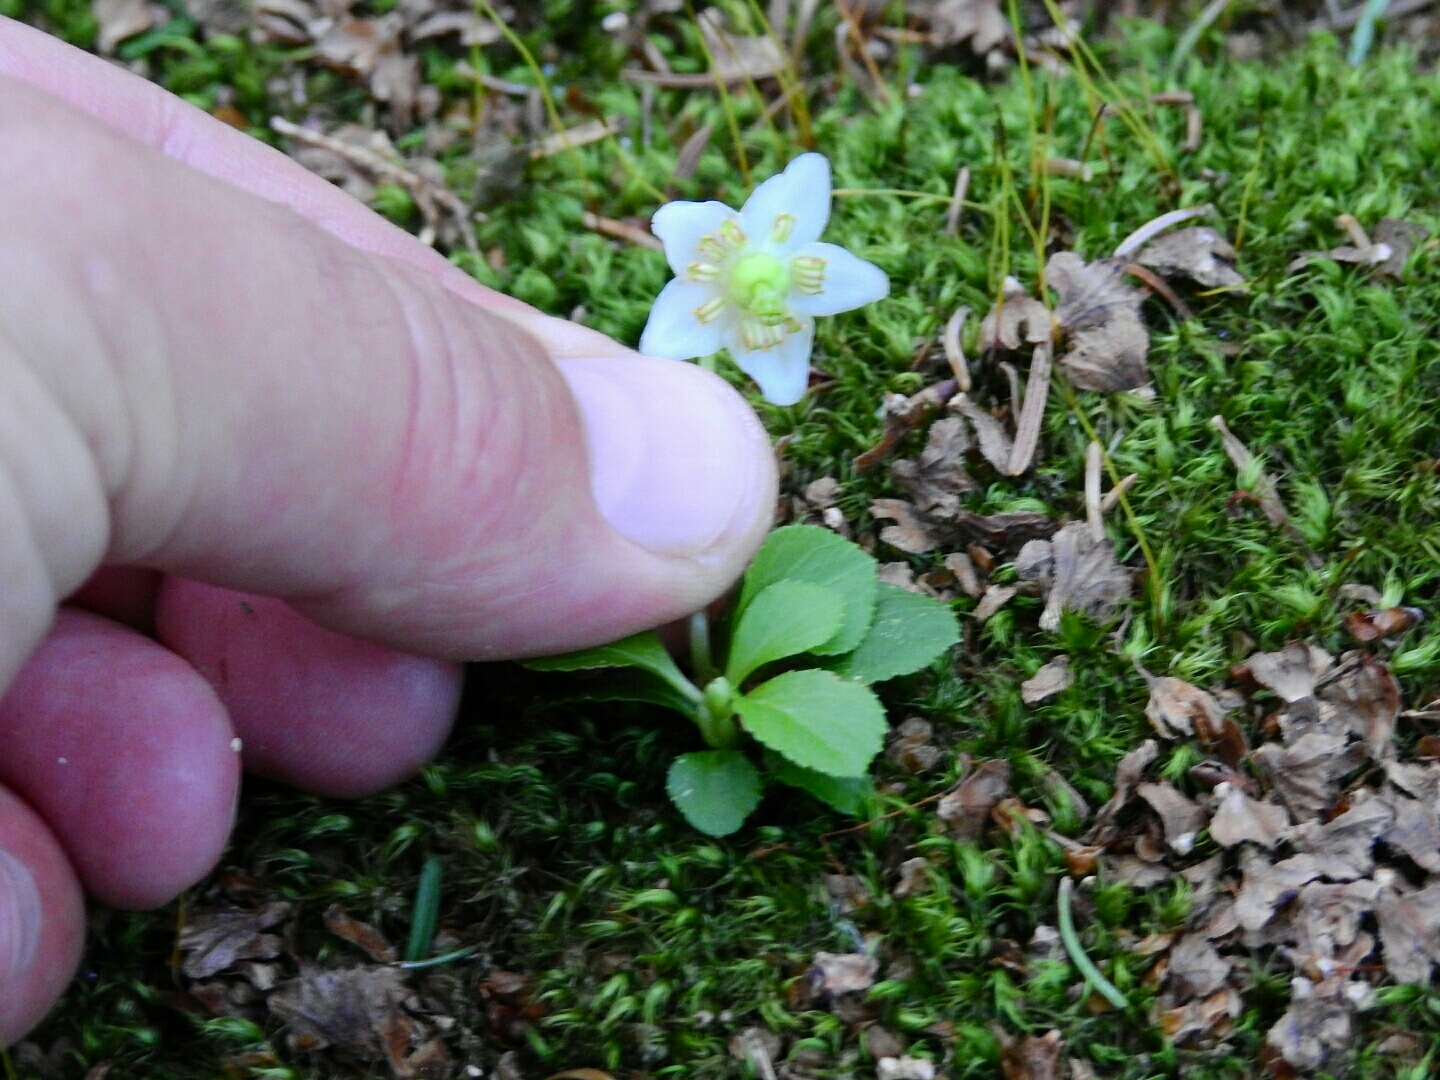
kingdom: Plantae
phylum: Tracheophyta
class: Magnoliopsida
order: Ericales
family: Ericaceae
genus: Moneses
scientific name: Moneses uniflora
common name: One-flowered wintergreen
